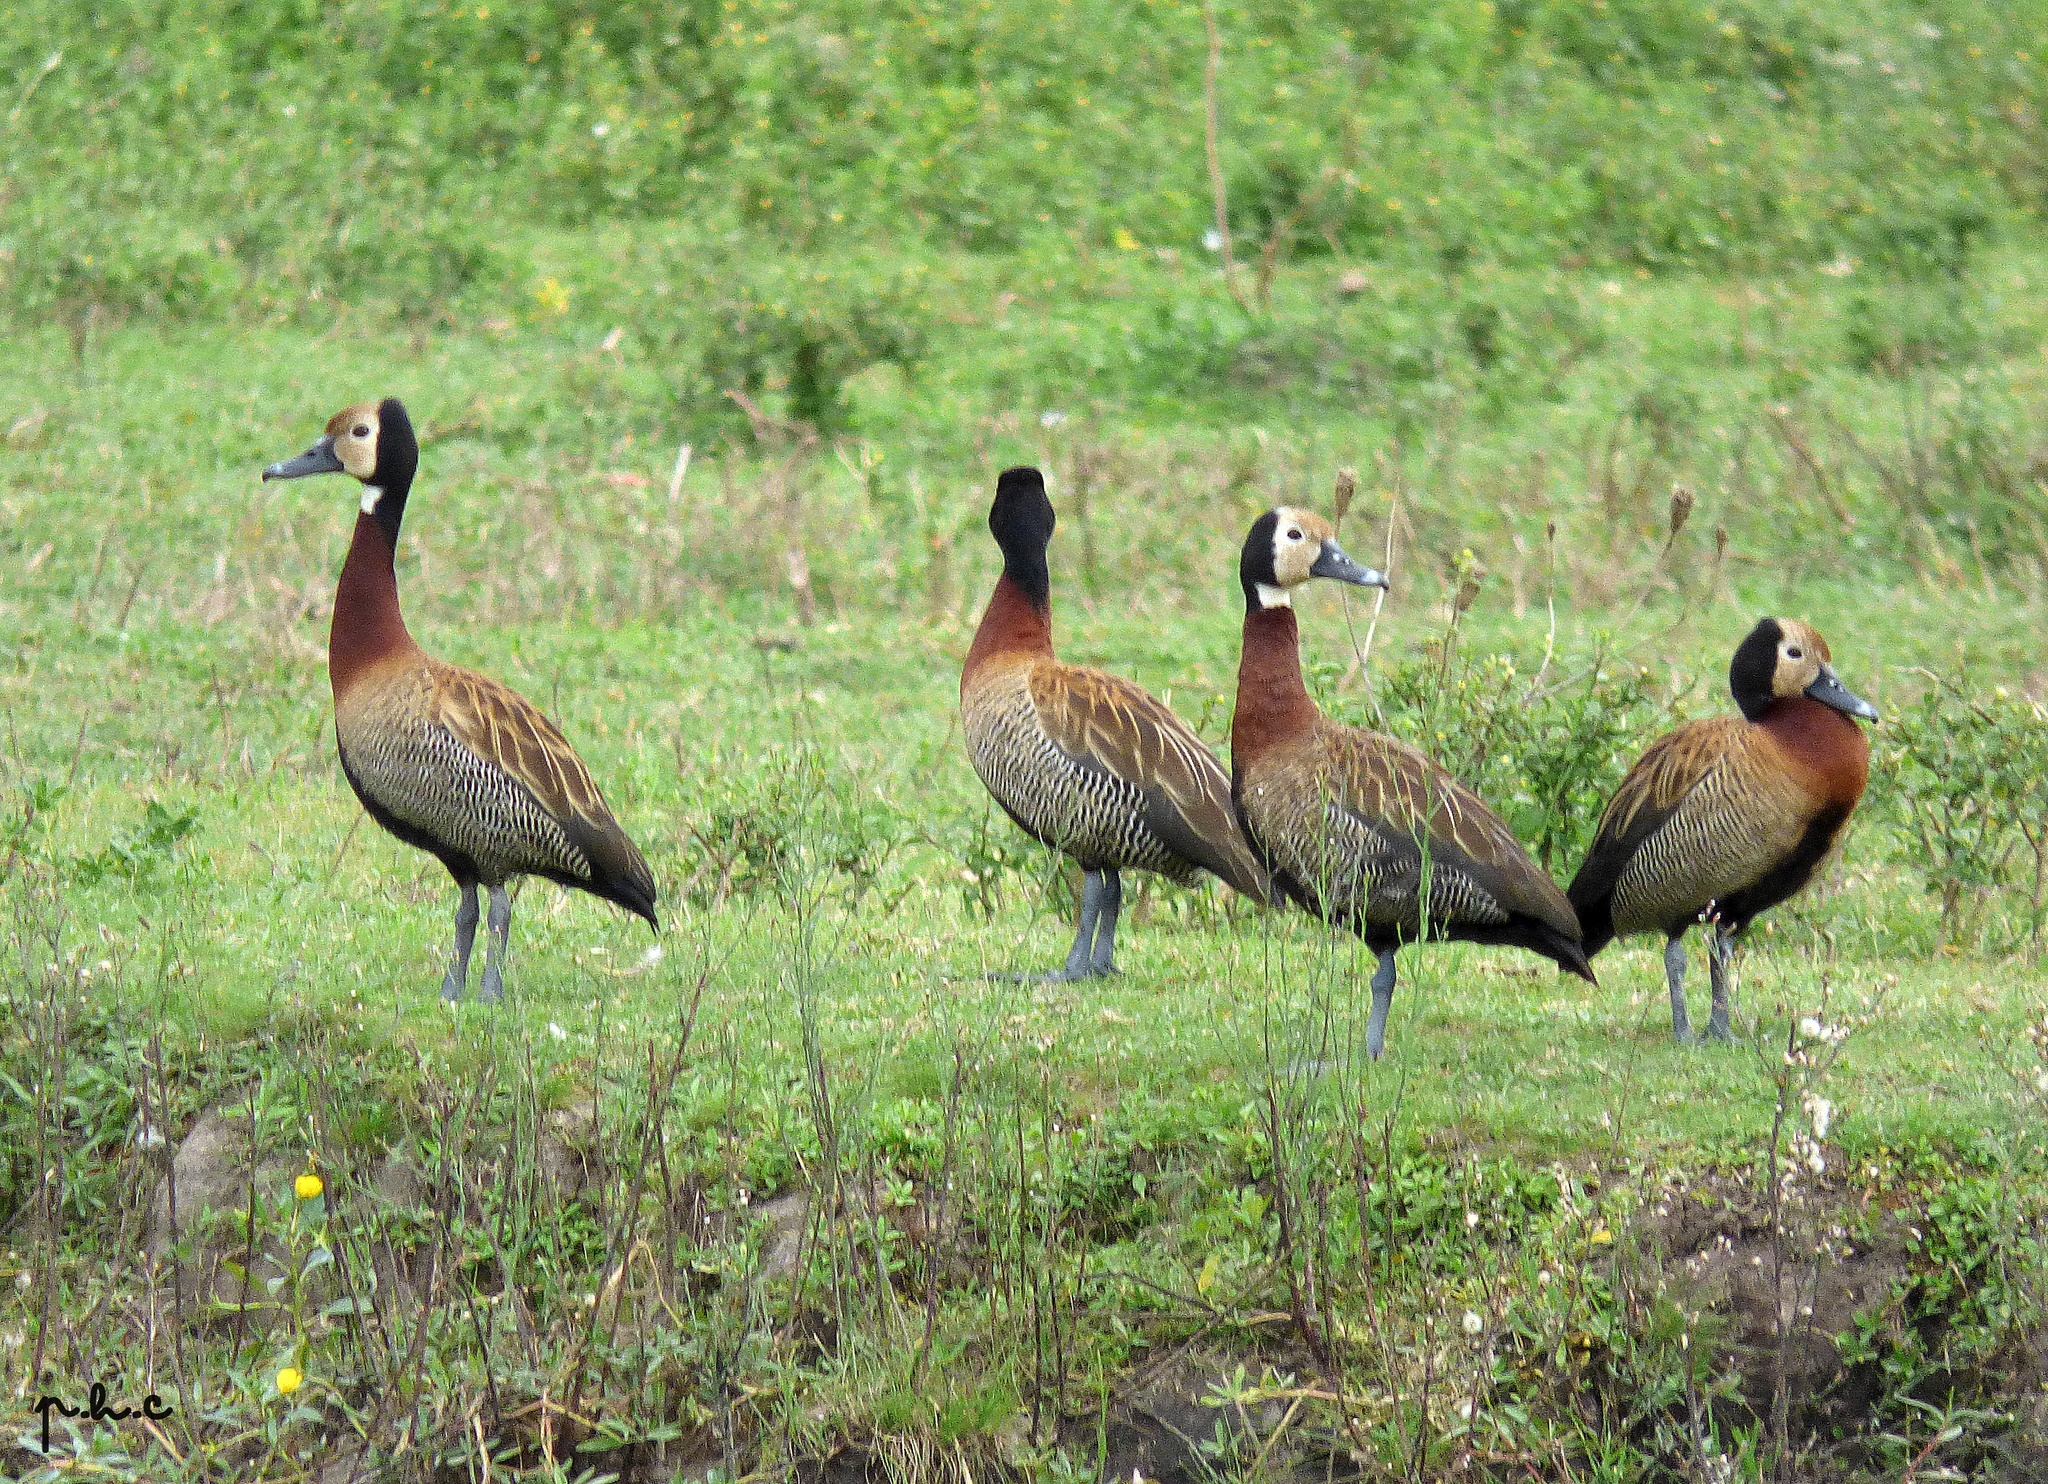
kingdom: Animalia
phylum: Chordata
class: Aves
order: Anseriformes
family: Anatidae
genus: Dendrocygna
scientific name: Dendrocygna viduata
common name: White-faced whistling duck
